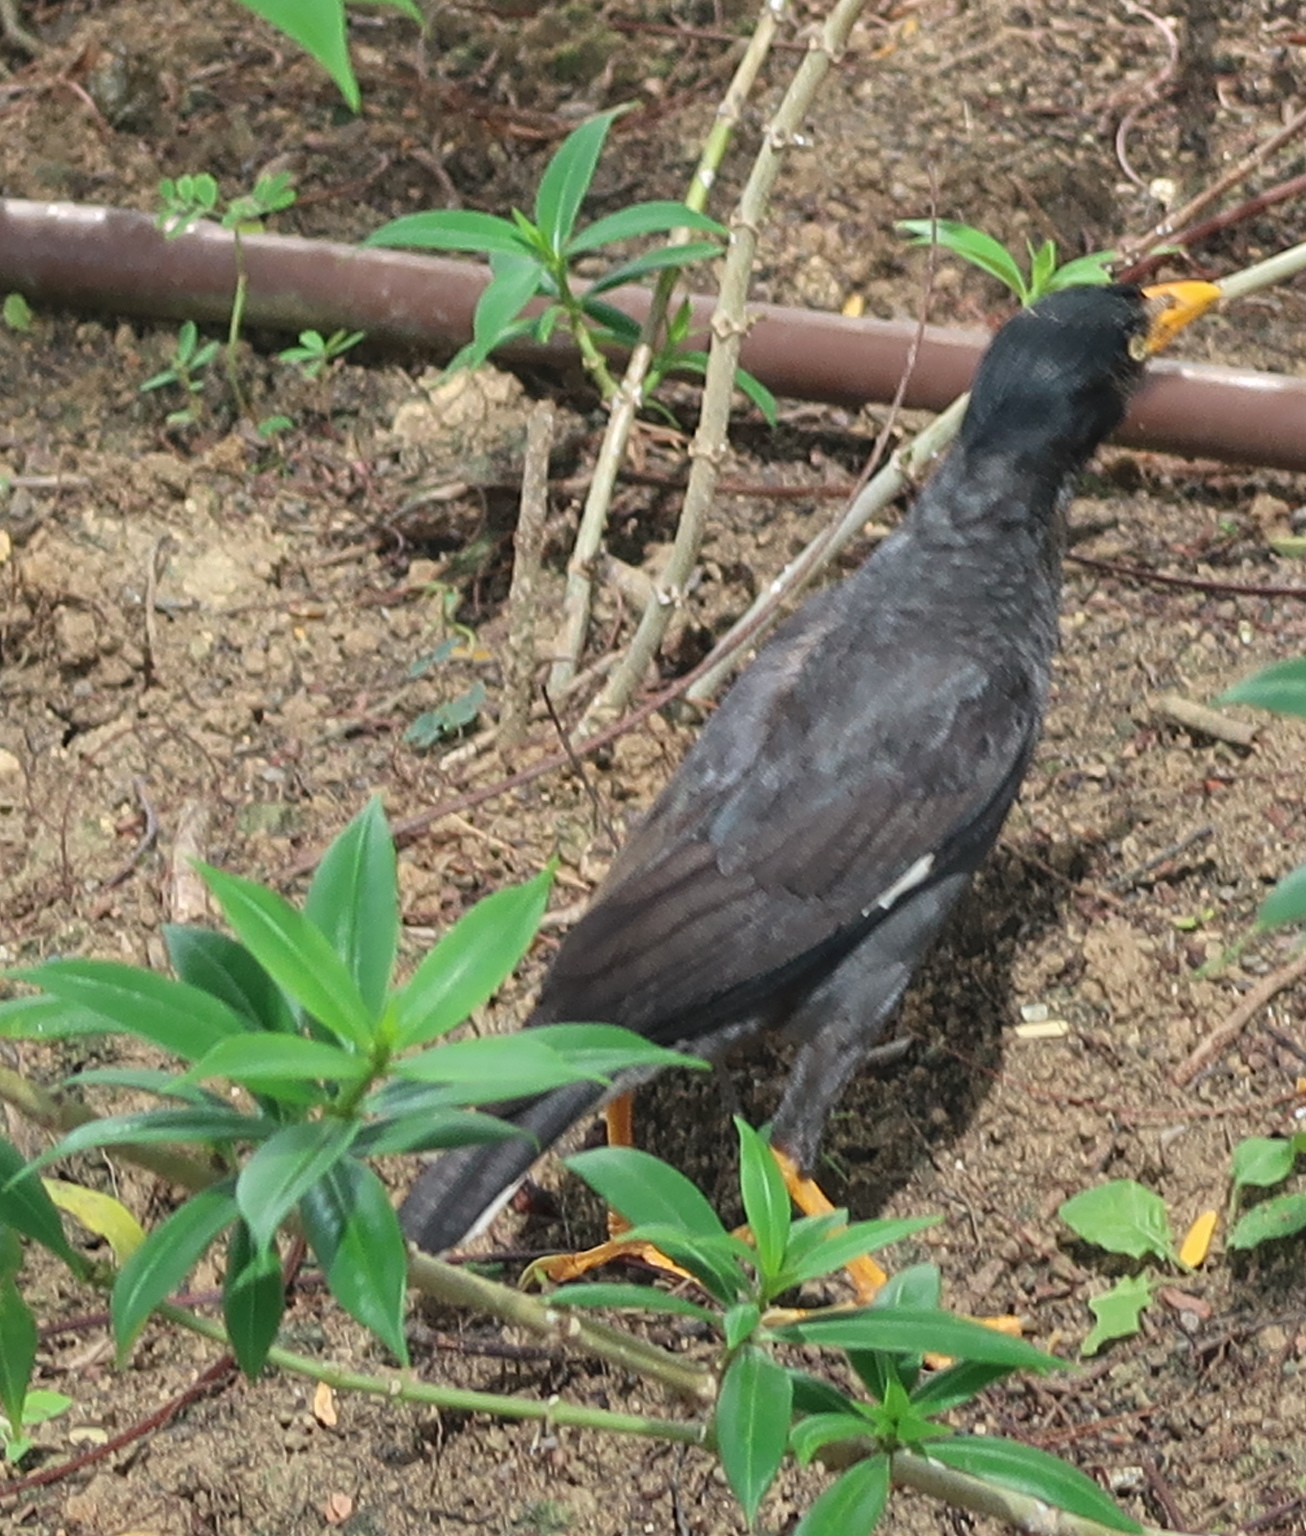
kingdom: Animalia
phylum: Chordata
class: Aves
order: Passeriformes
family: Sturnidae
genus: Acridotheres
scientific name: Acridotheres javanicus
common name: Javan myna
